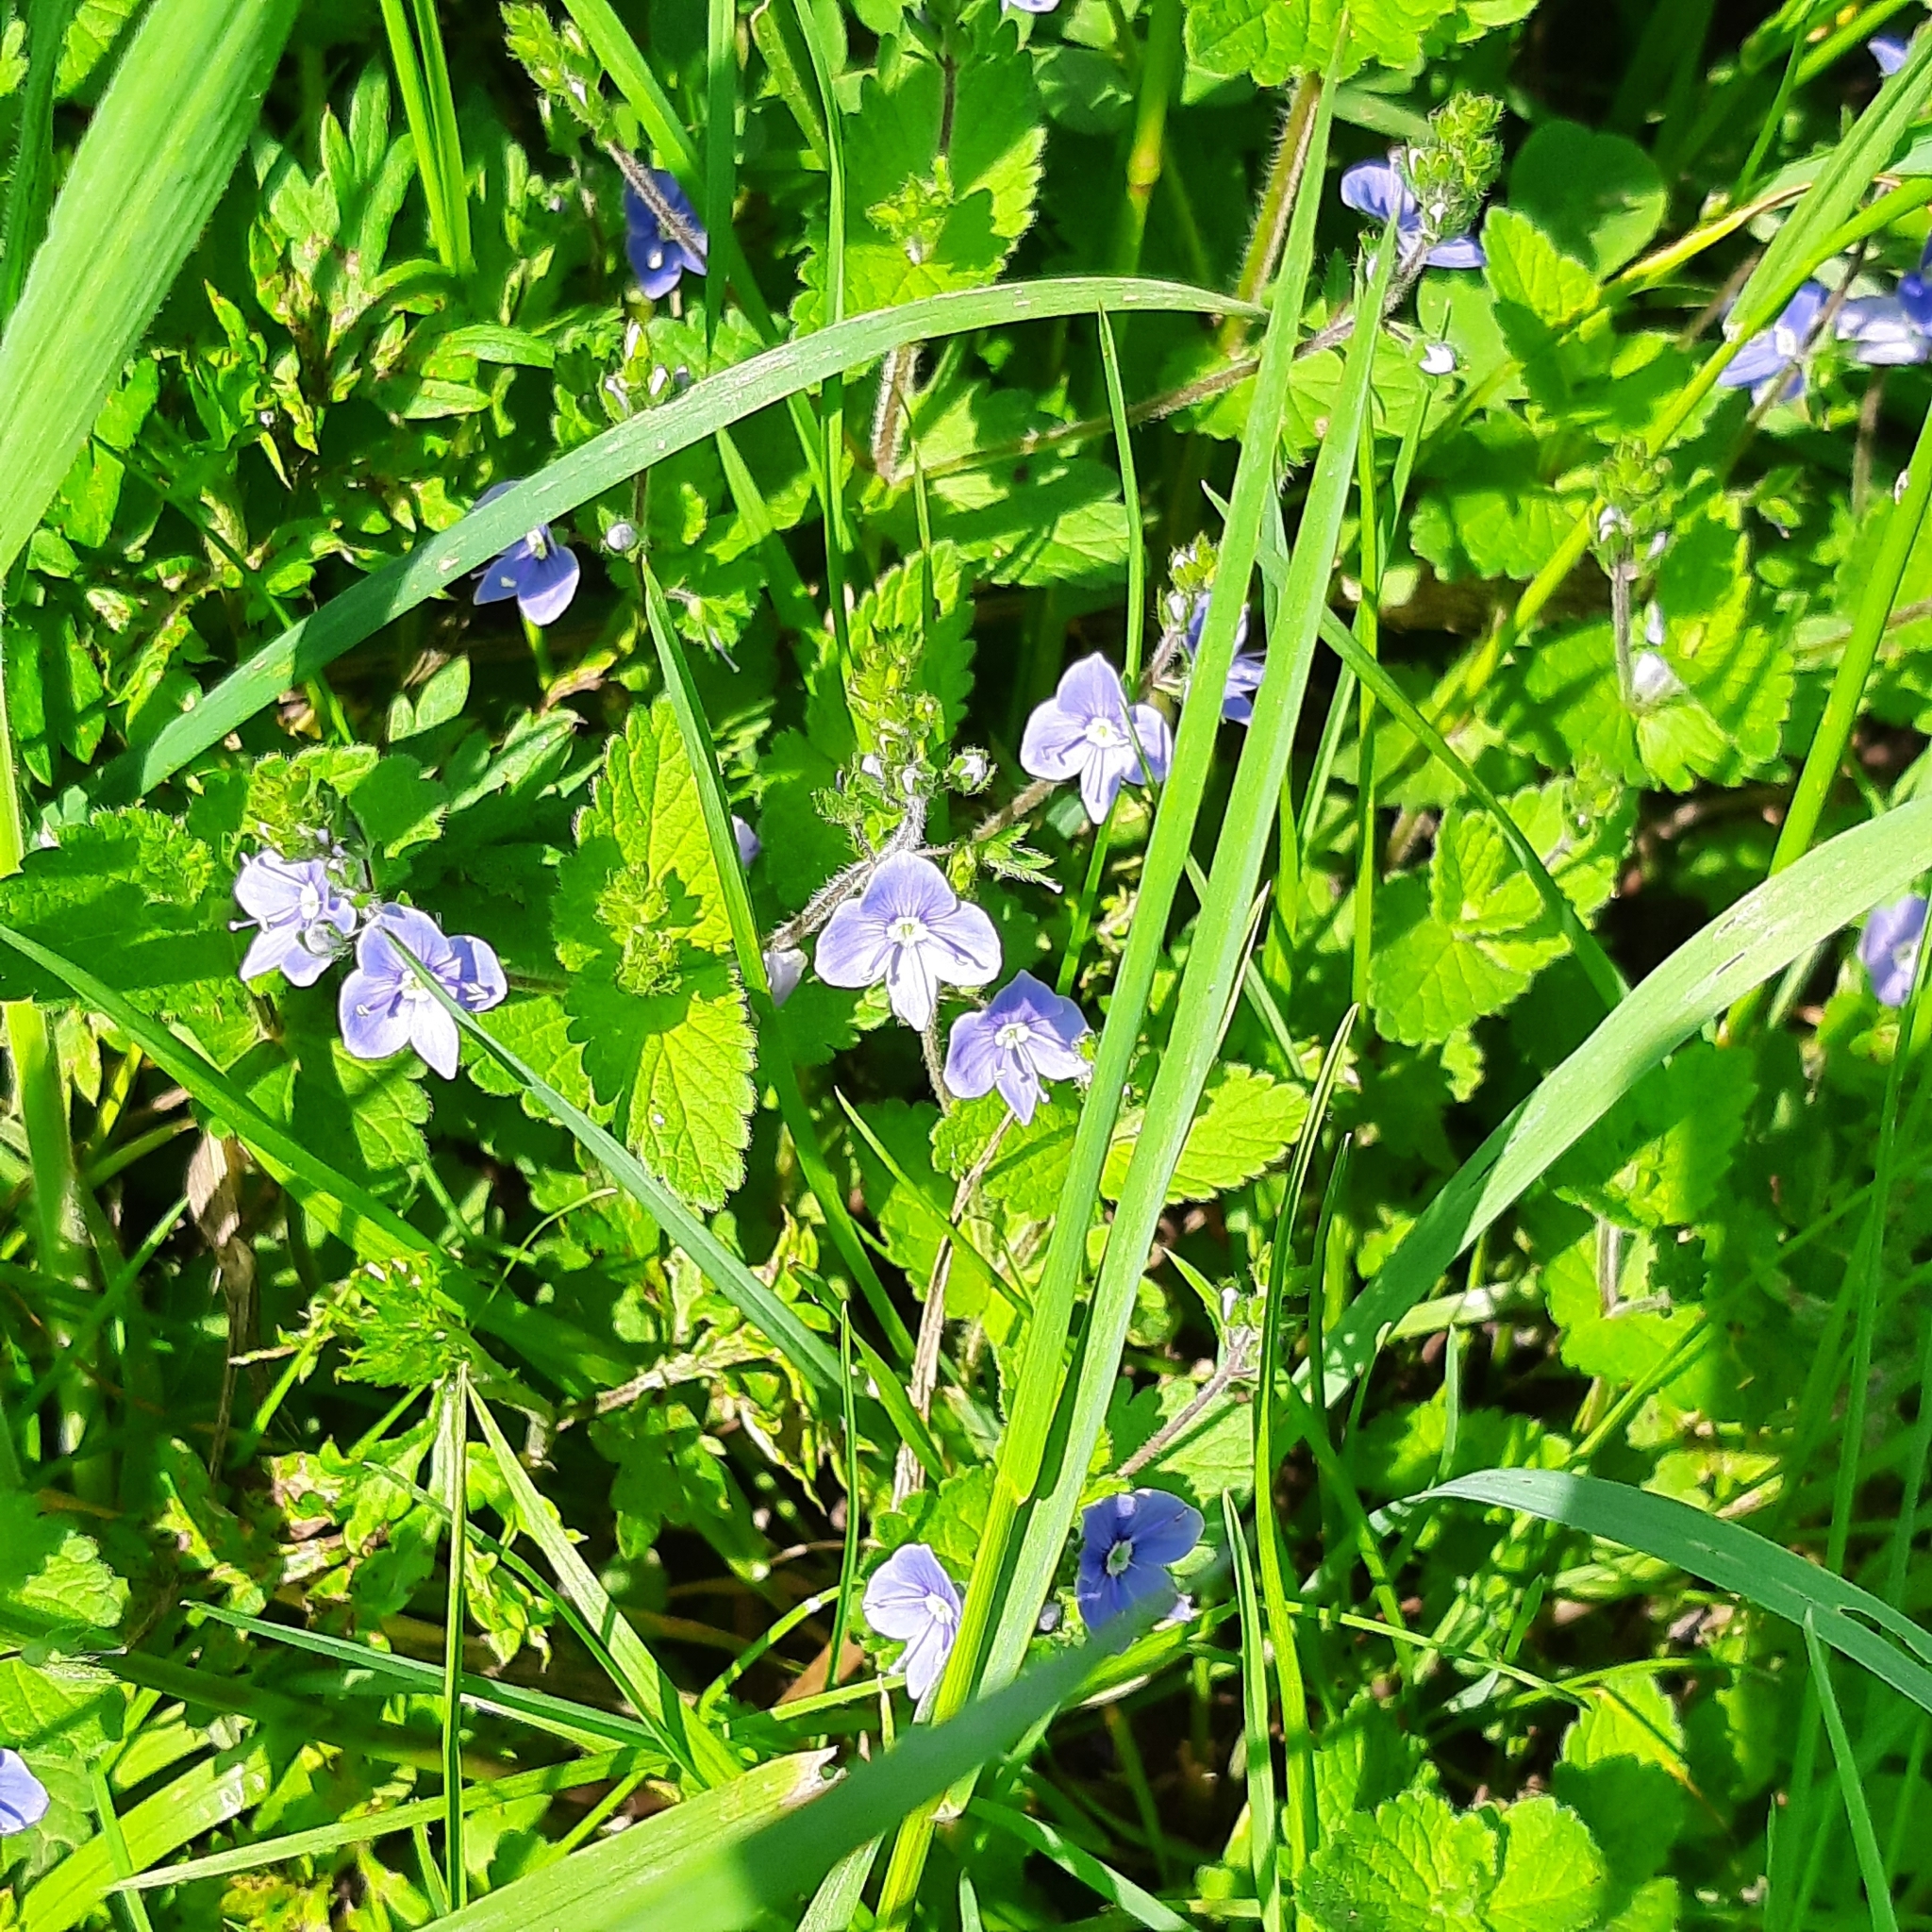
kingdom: Plantae
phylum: Tracheophyta
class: Magnoliopsida
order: Lamiales
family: Plantaginaceae
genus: Veronica
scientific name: Veronica chamaedrys
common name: Germander speedwell
